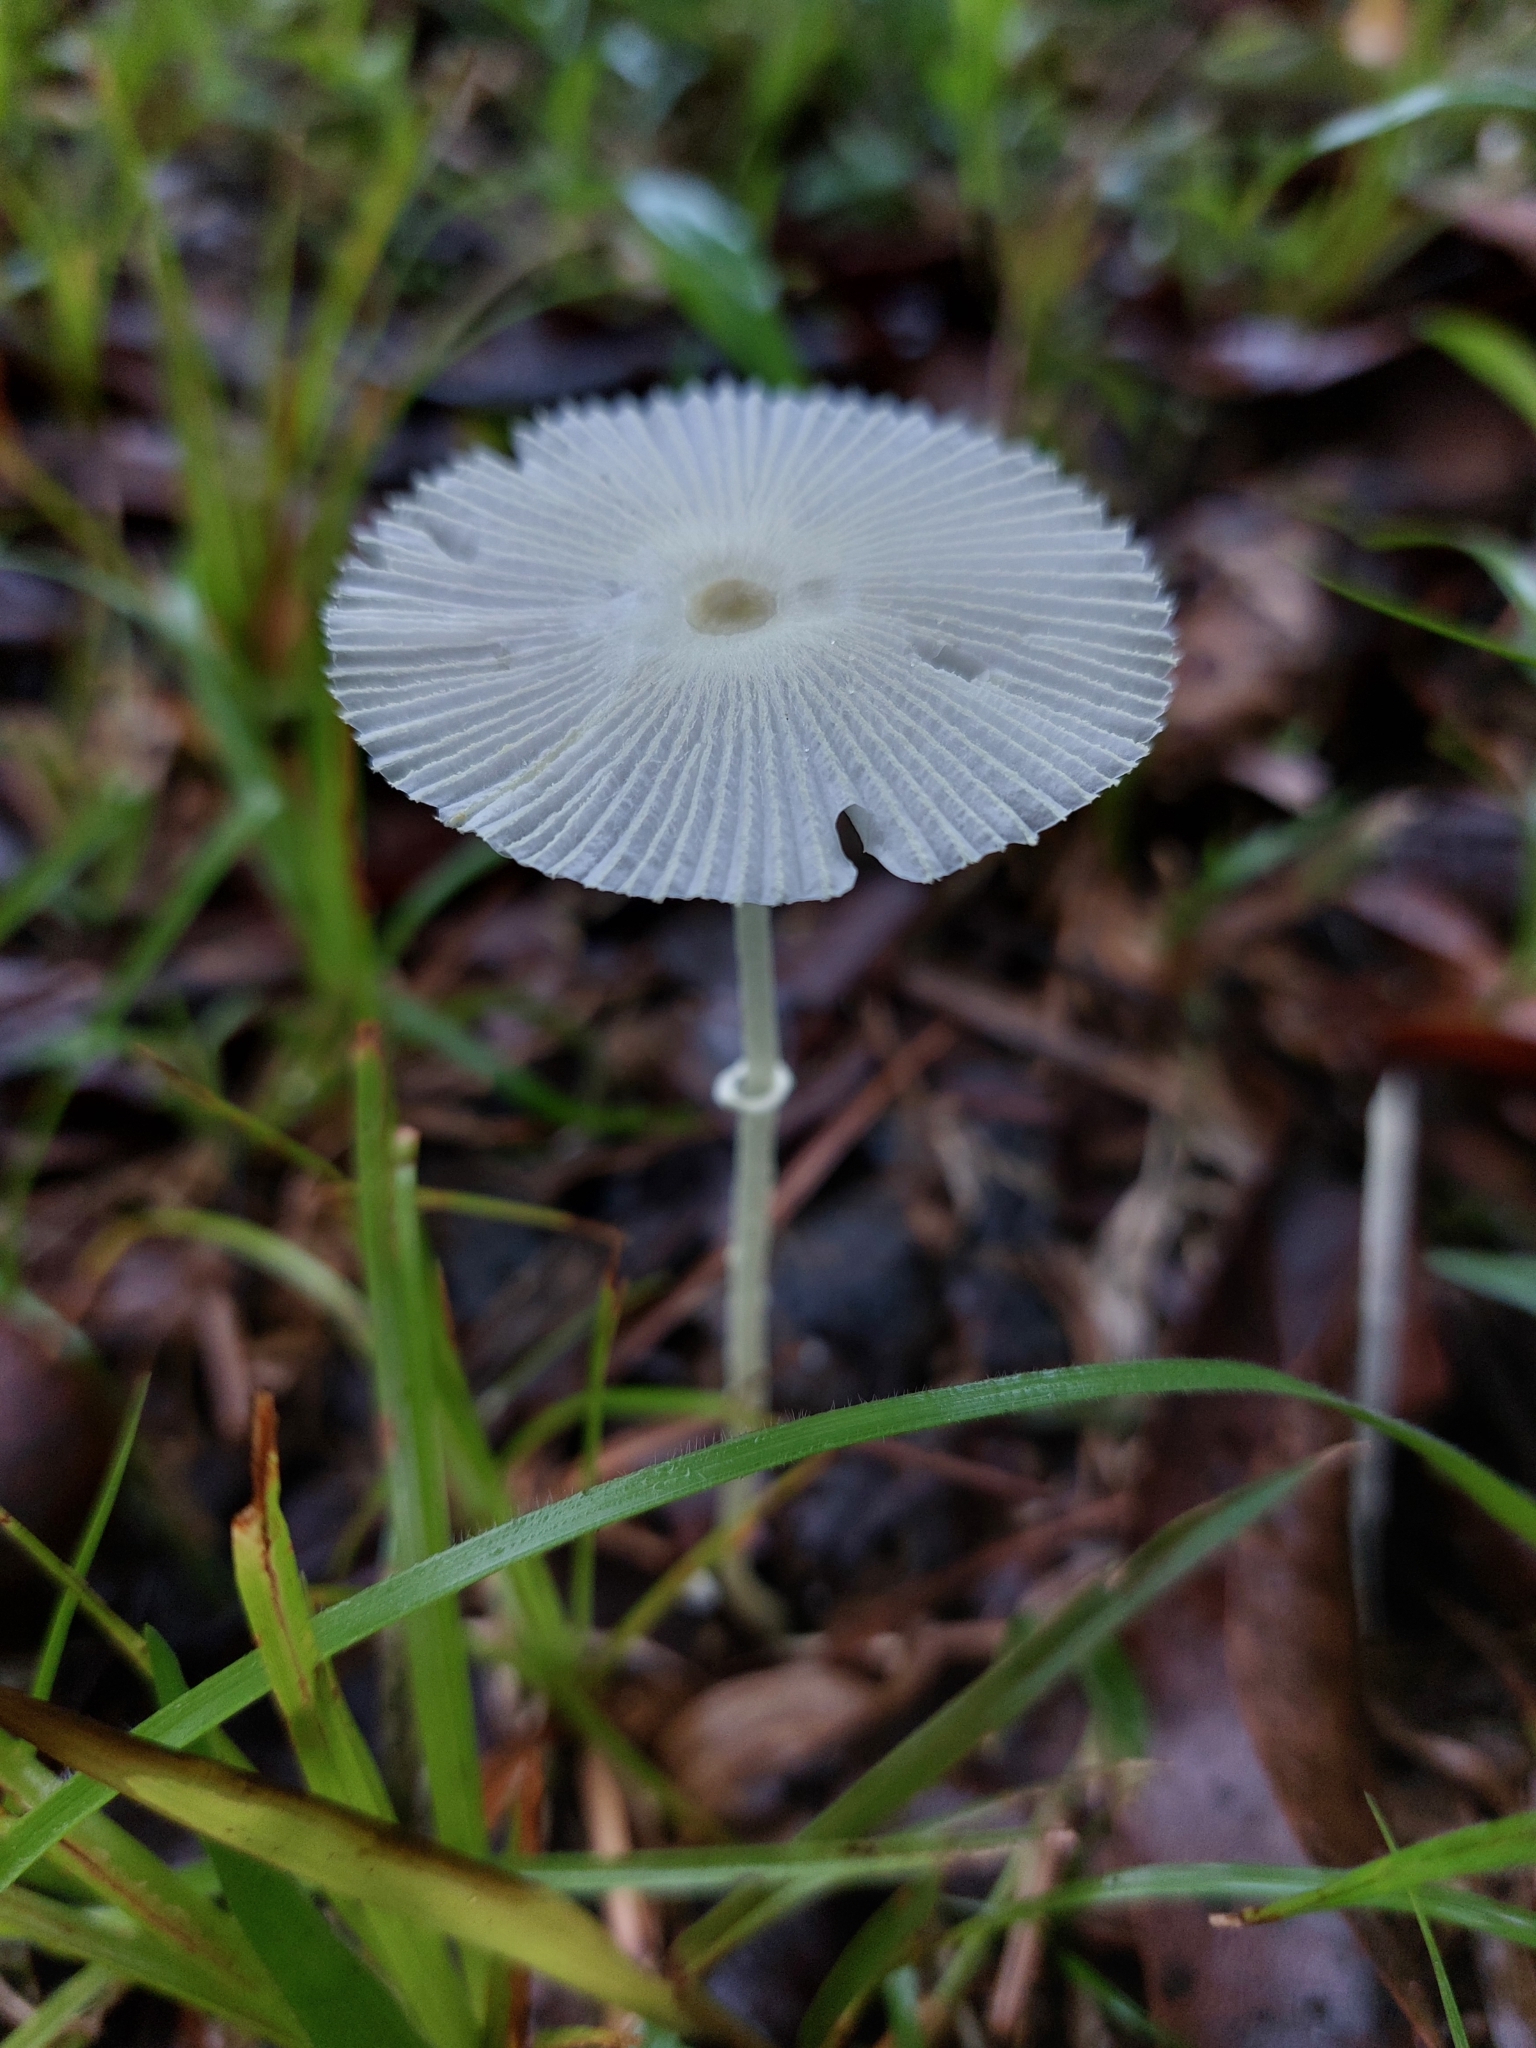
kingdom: Fungi
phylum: Basidiomycota
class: Agaricomycetes
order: Agaricales
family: Agaricaceae
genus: Leucocoprinus
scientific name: Leucocoprinus fragilissimus
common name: Fragile dapperling
